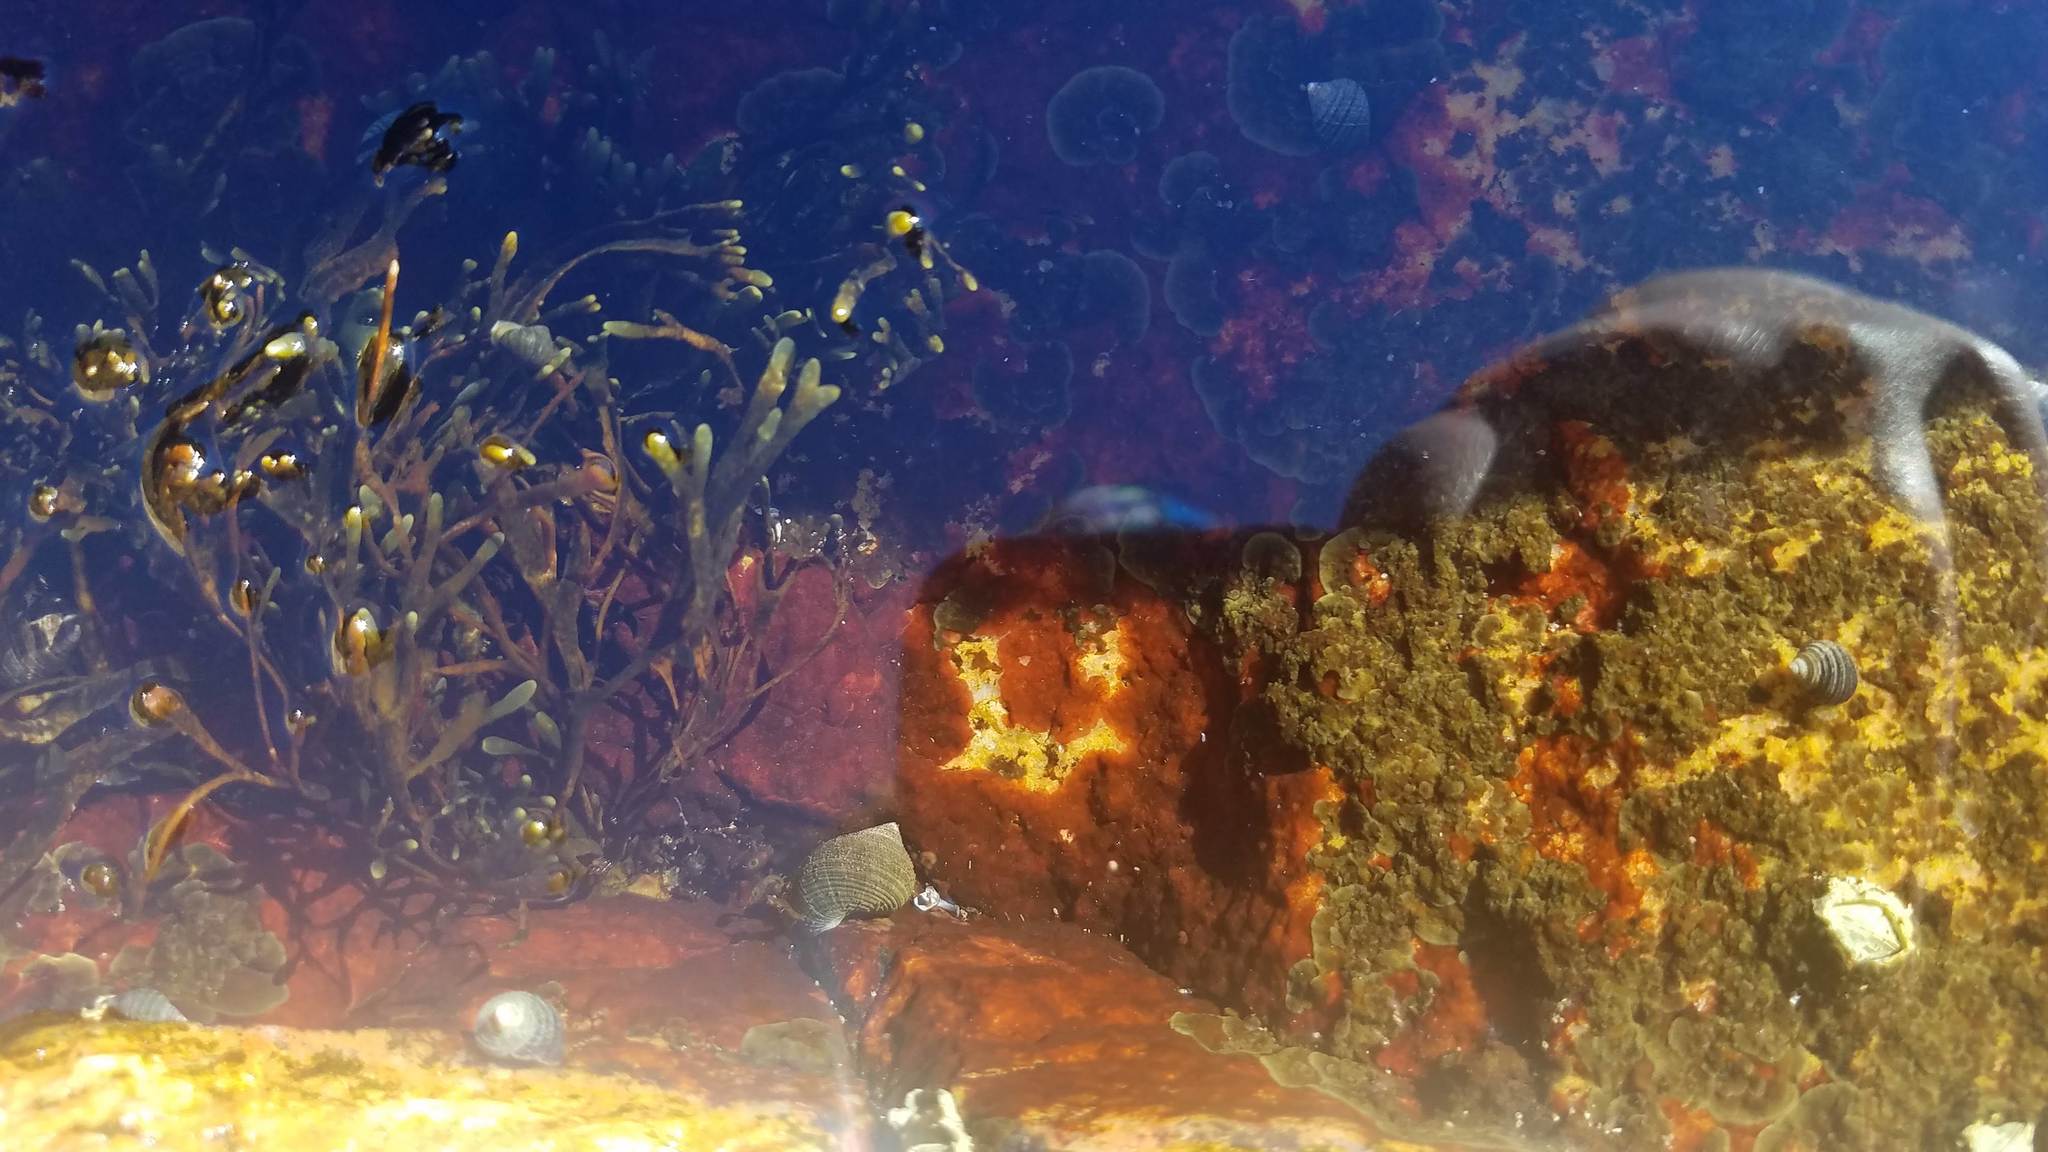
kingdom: Animalia
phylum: Arthropoda
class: Maxillopoda
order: Sessilia
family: Archaeobalanidae
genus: Semibalanus
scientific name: Semibalanus balanoides
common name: Acorn barnacle
